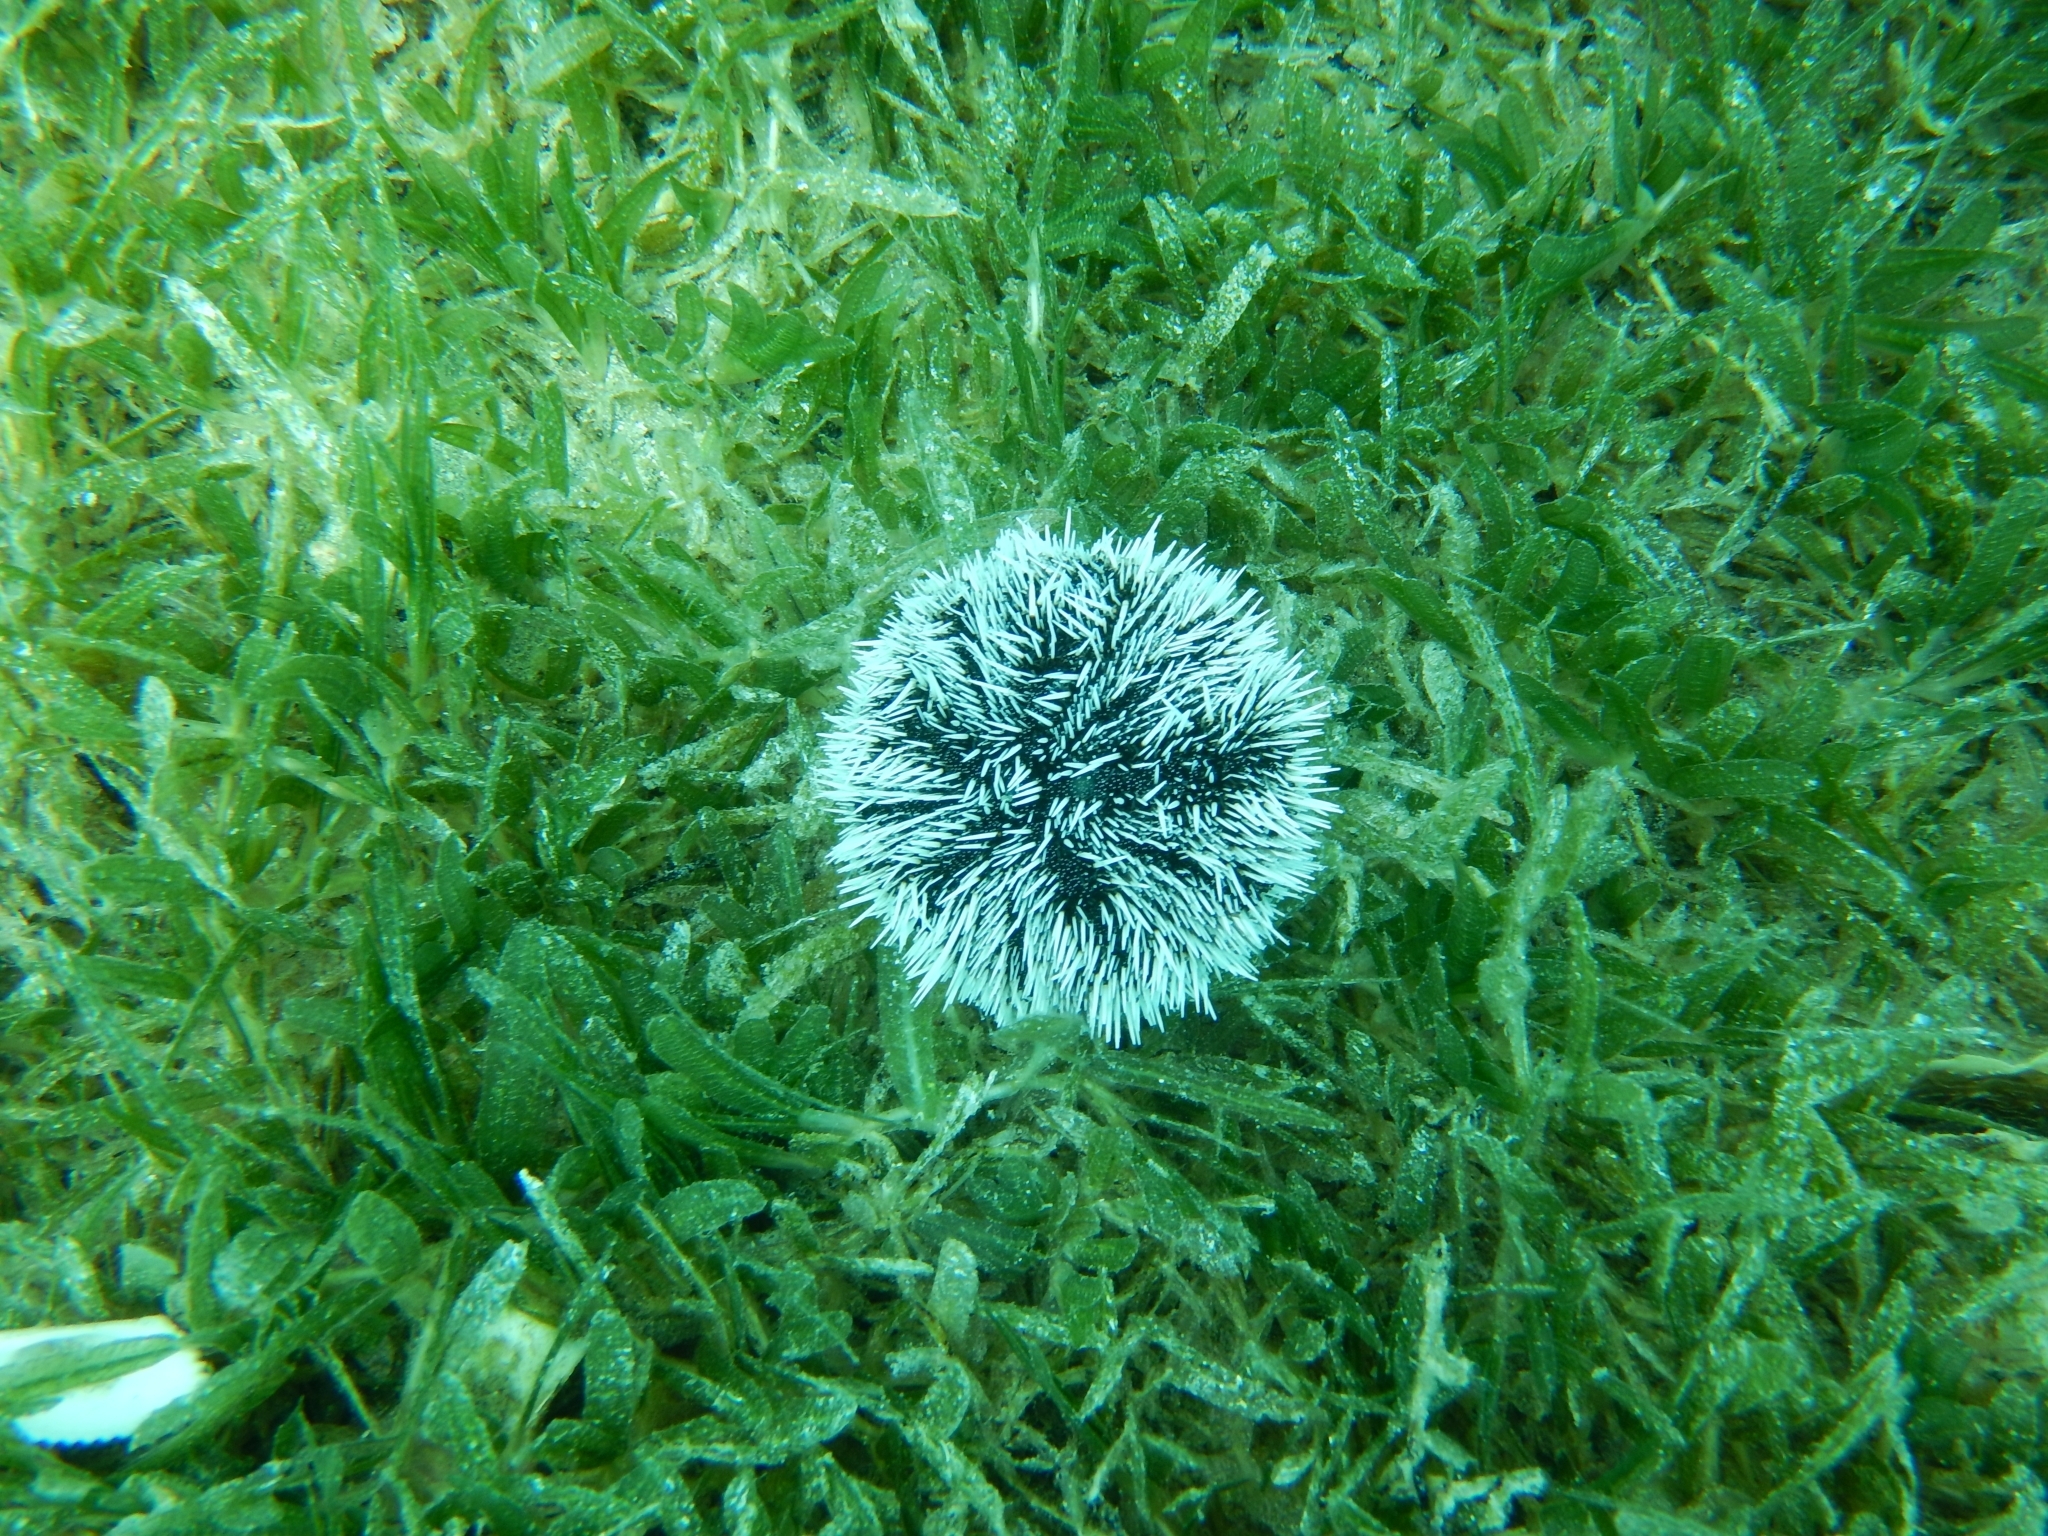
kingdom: Animalia
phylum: Echinodermata
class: Echinoidea
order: Camarodonta
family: Toxopneustidae
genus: Tripneustes
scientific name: Tripneustes ventricosus
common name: West indian sea egg
